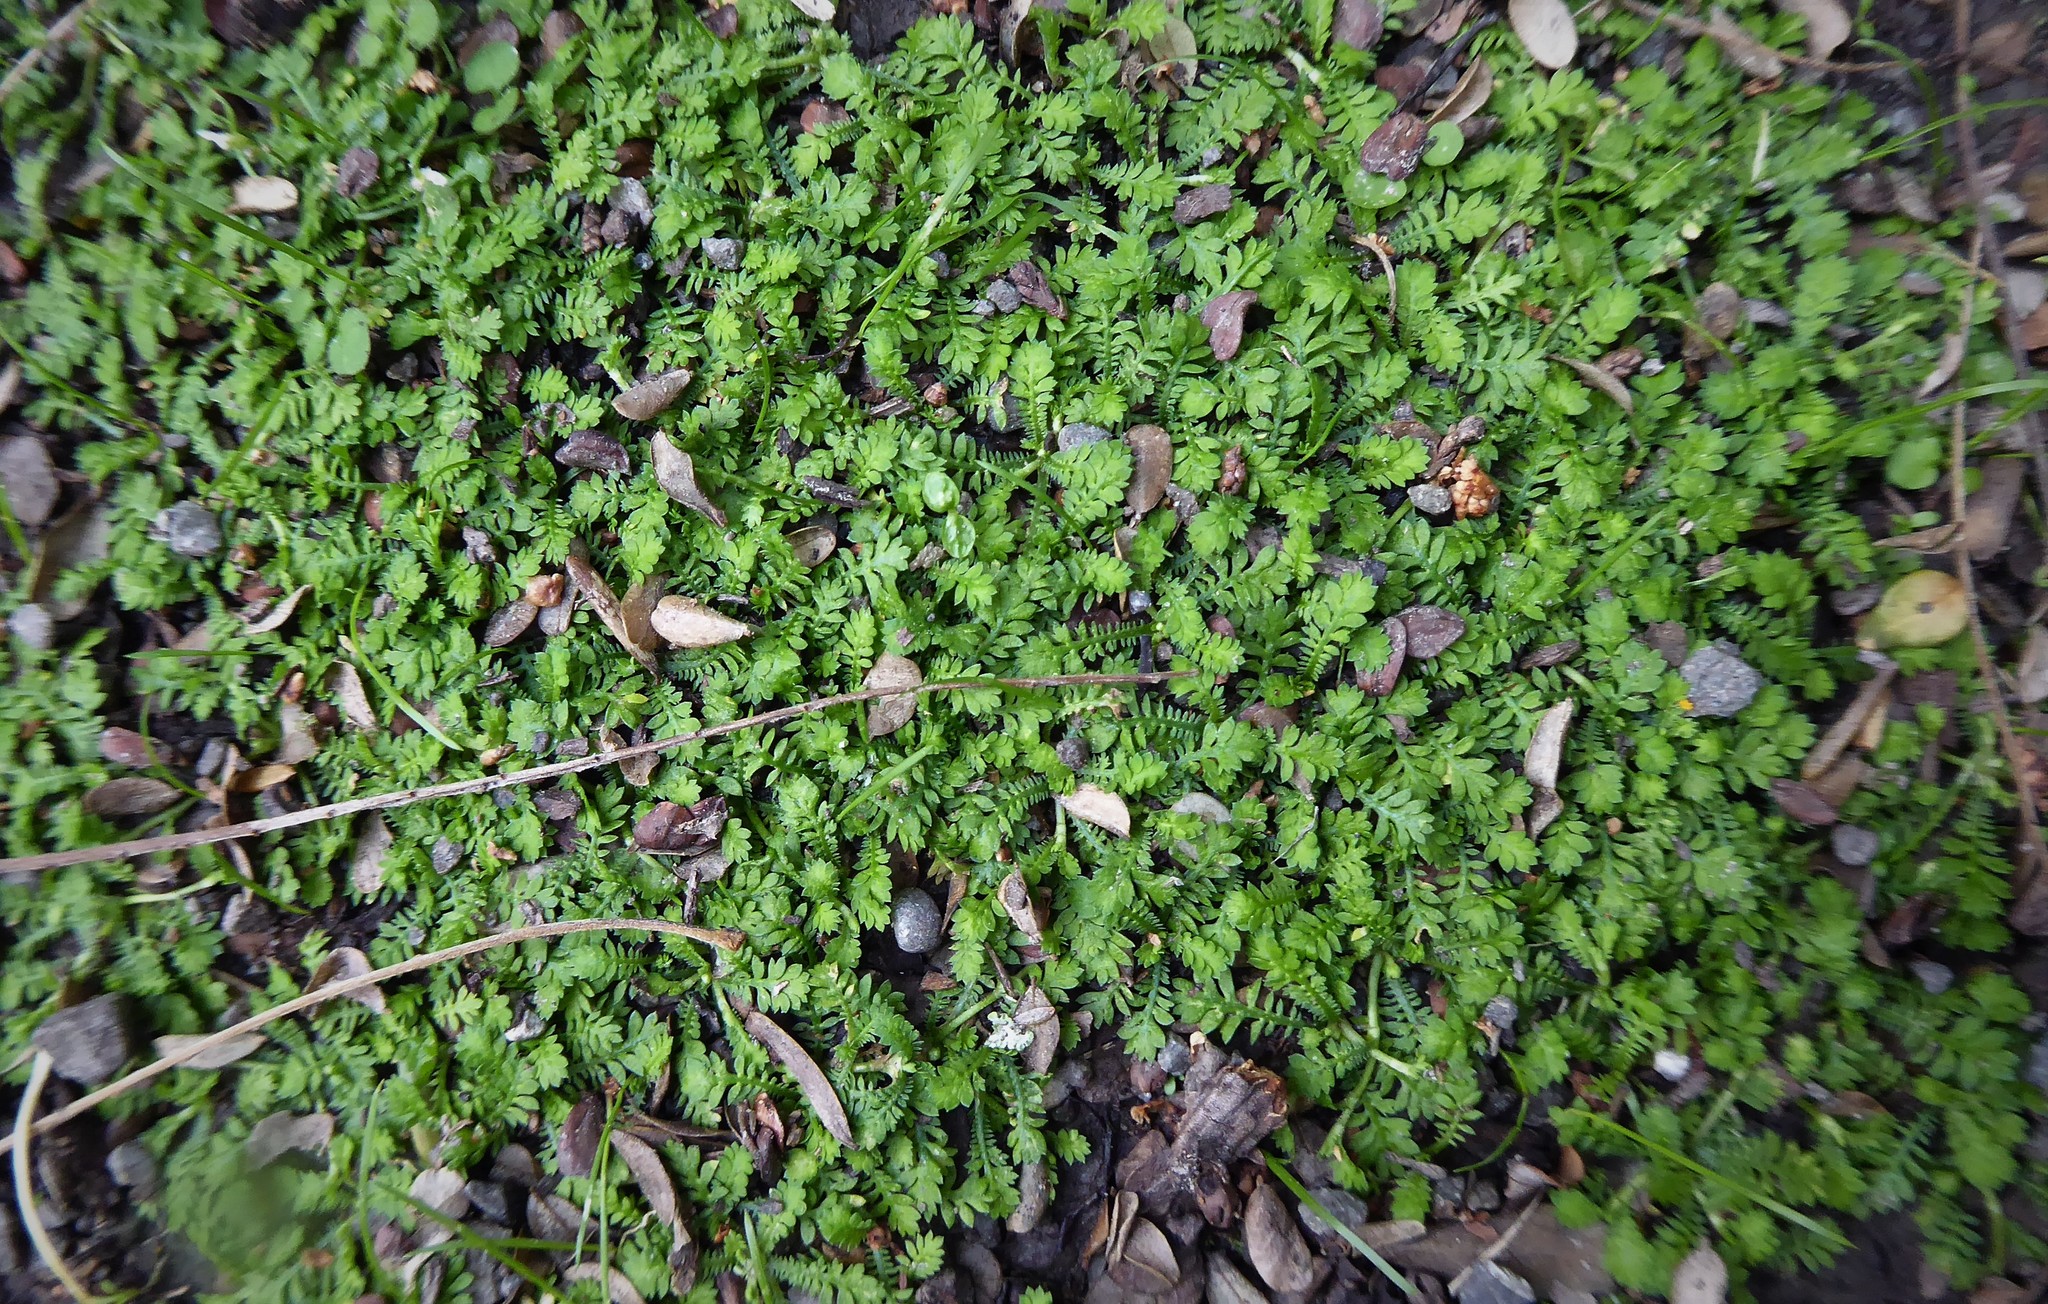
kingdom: Plantae
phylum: Tracheophyta
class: Magnoliopsida
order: Asterales
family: Asteraceae
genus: Leptinella
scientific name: Leptinella nana
